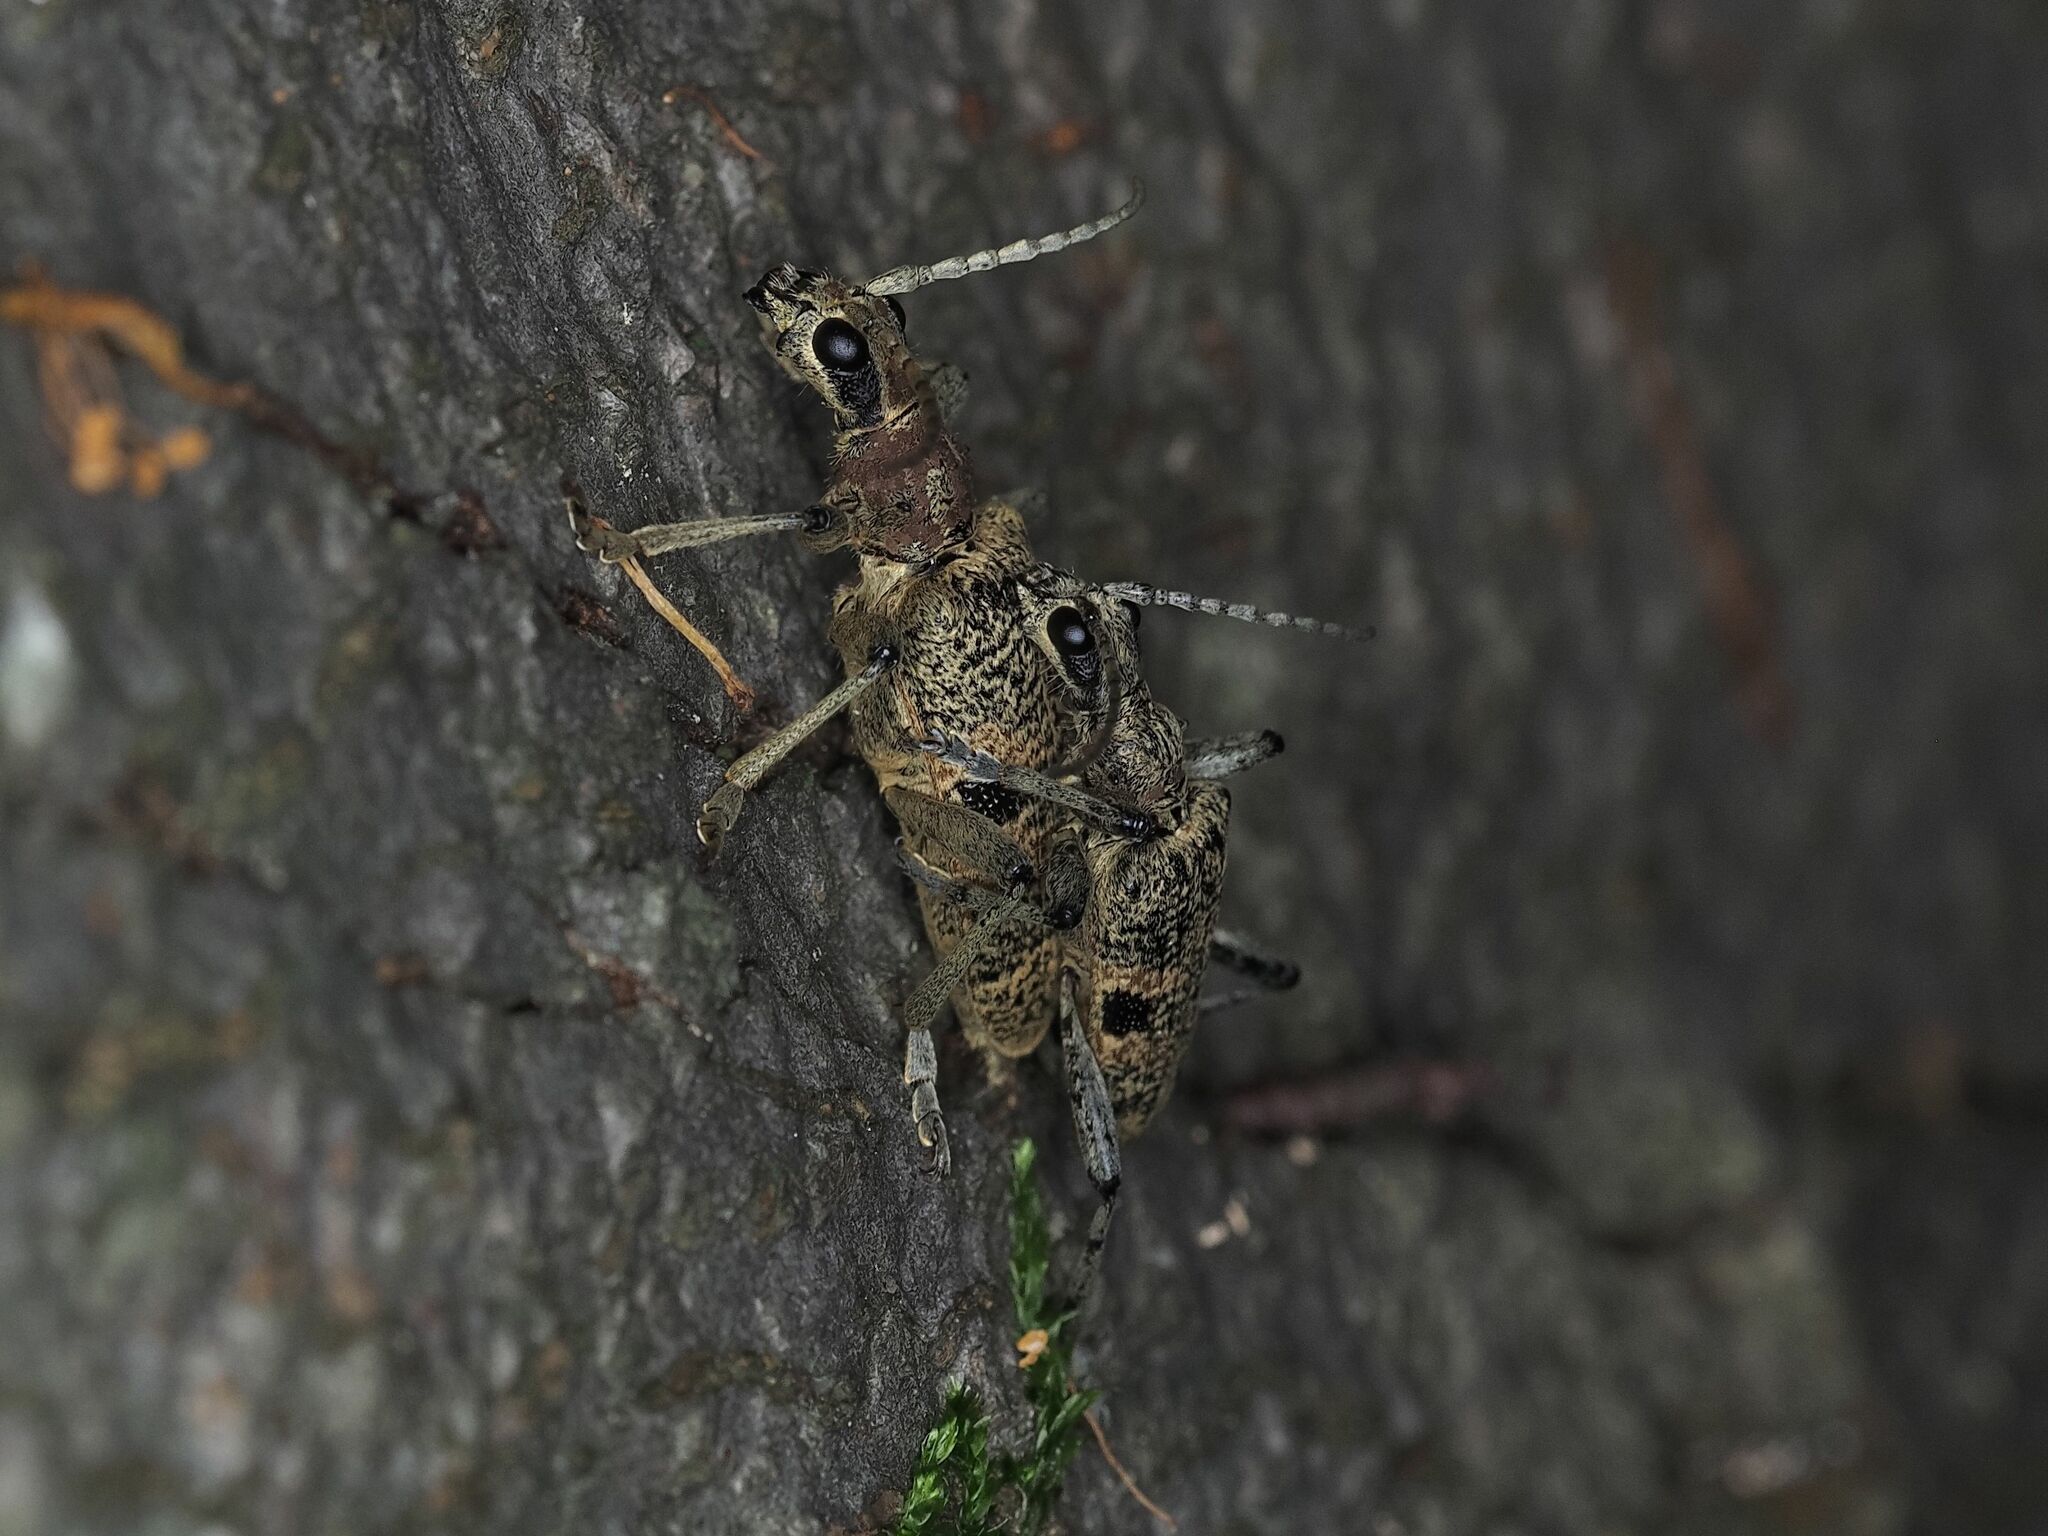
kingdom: Animalia
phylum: Arthropoda
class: Insecta
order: Coleoptera
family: Cerambycidae
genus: Rhagium
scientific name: Rhagium mordax
